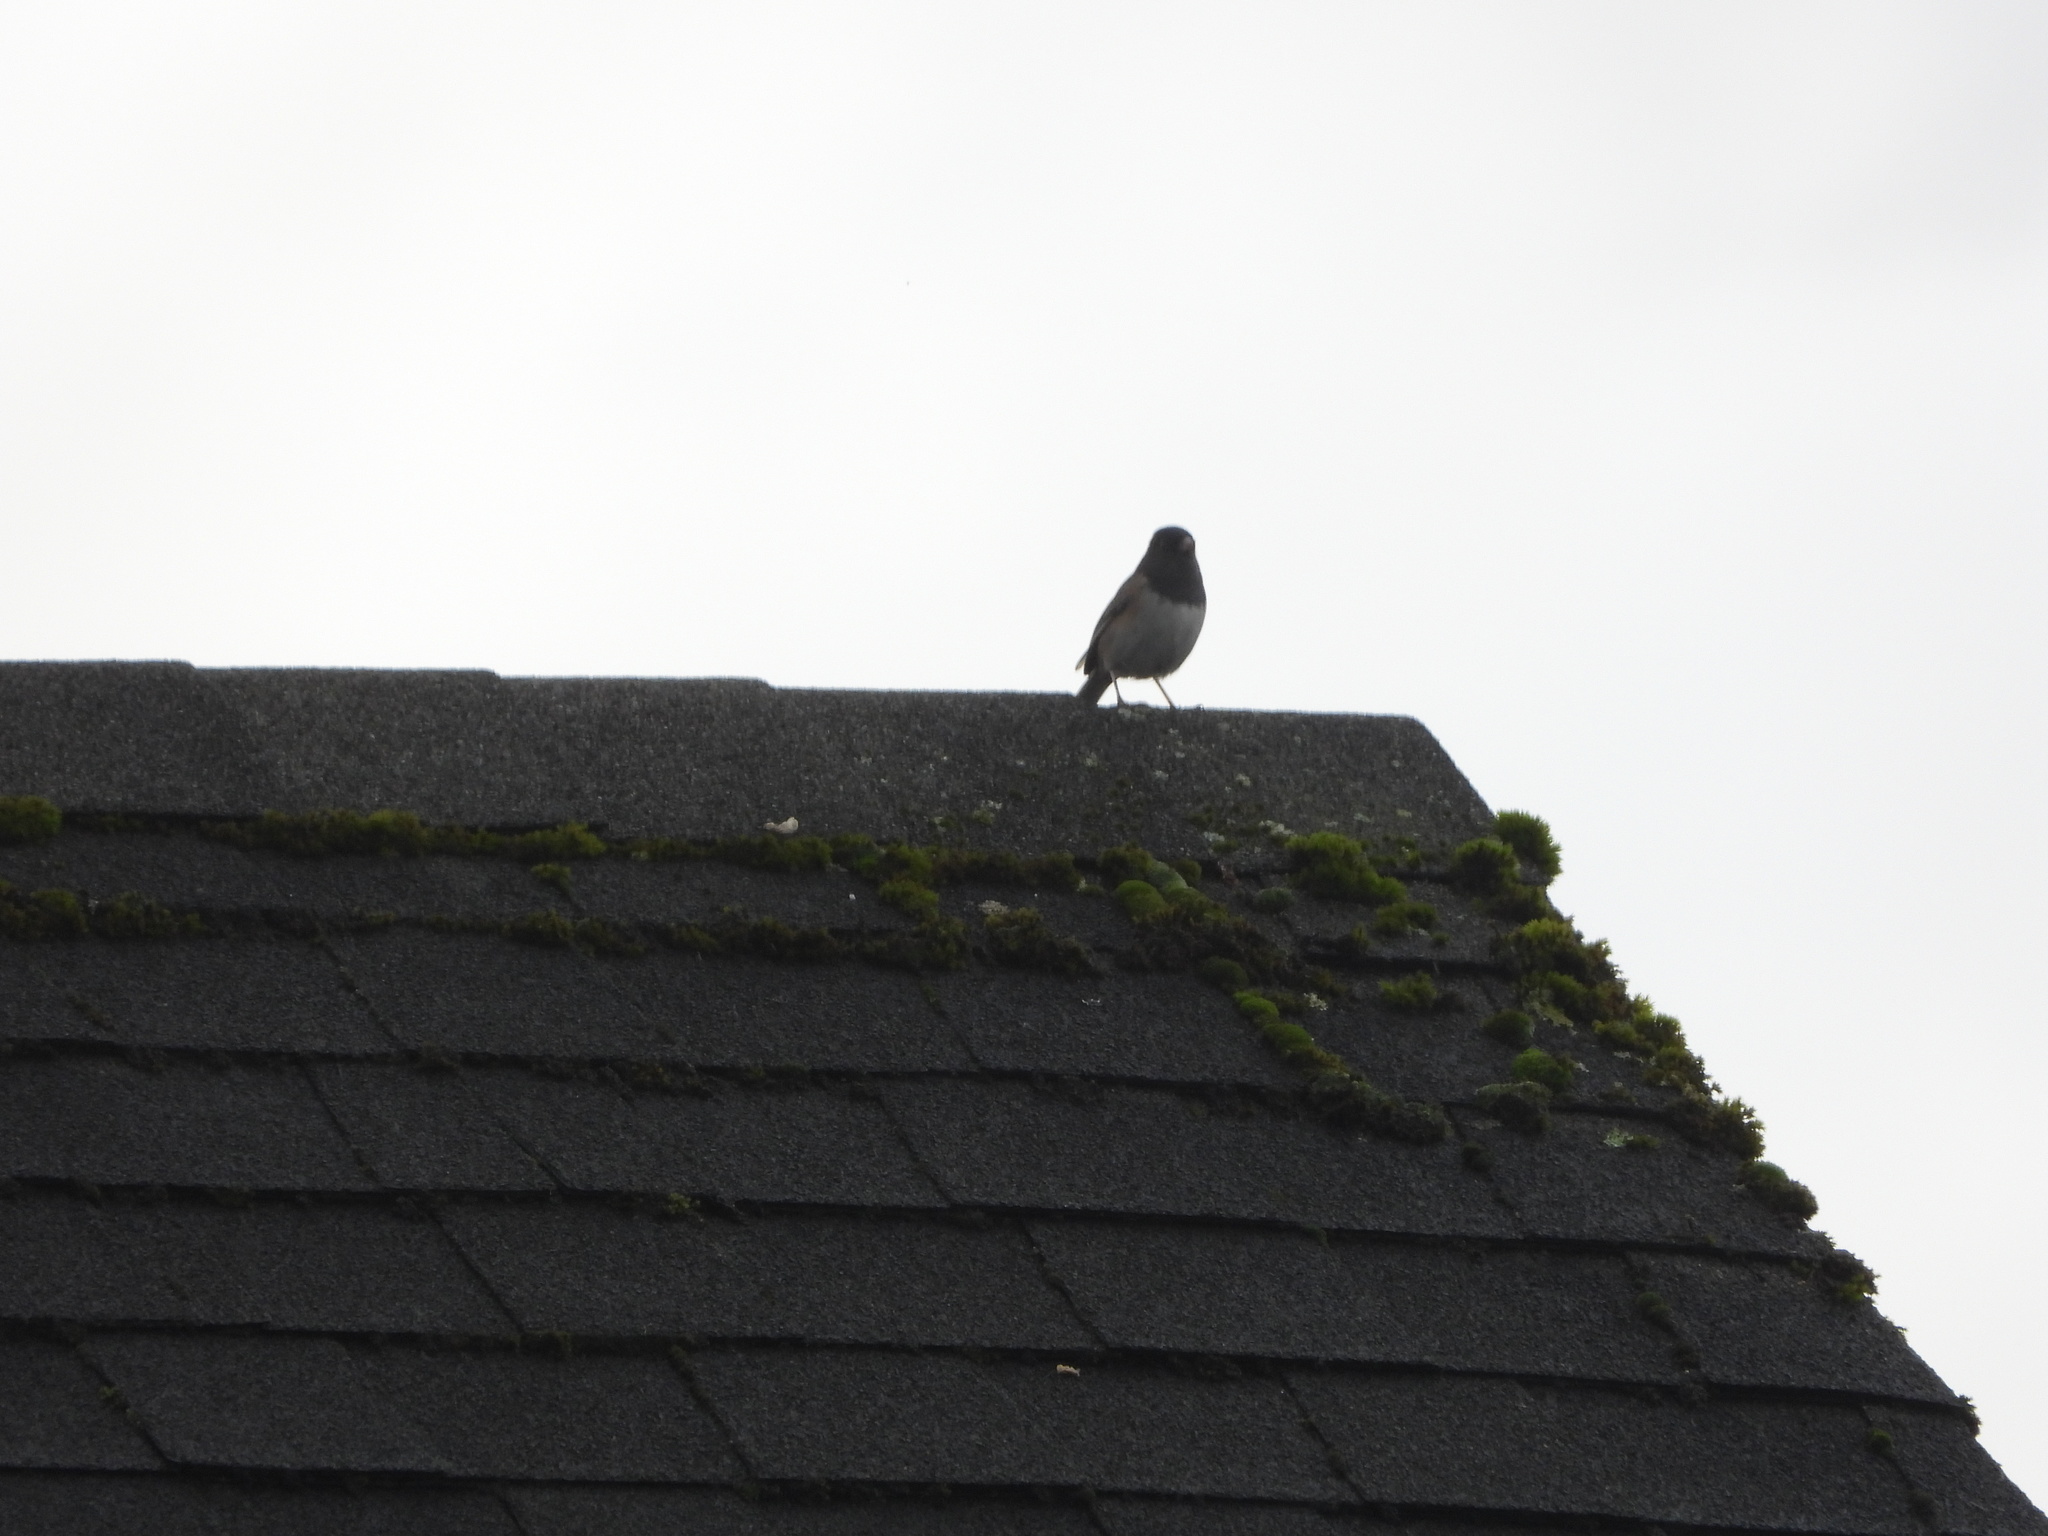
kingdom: Animalia
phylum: Chordata
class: Aves
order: Passeriformes
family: Passerellidae
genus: Junco
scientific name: Junco hyemalis
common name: Dark-eyed junco
